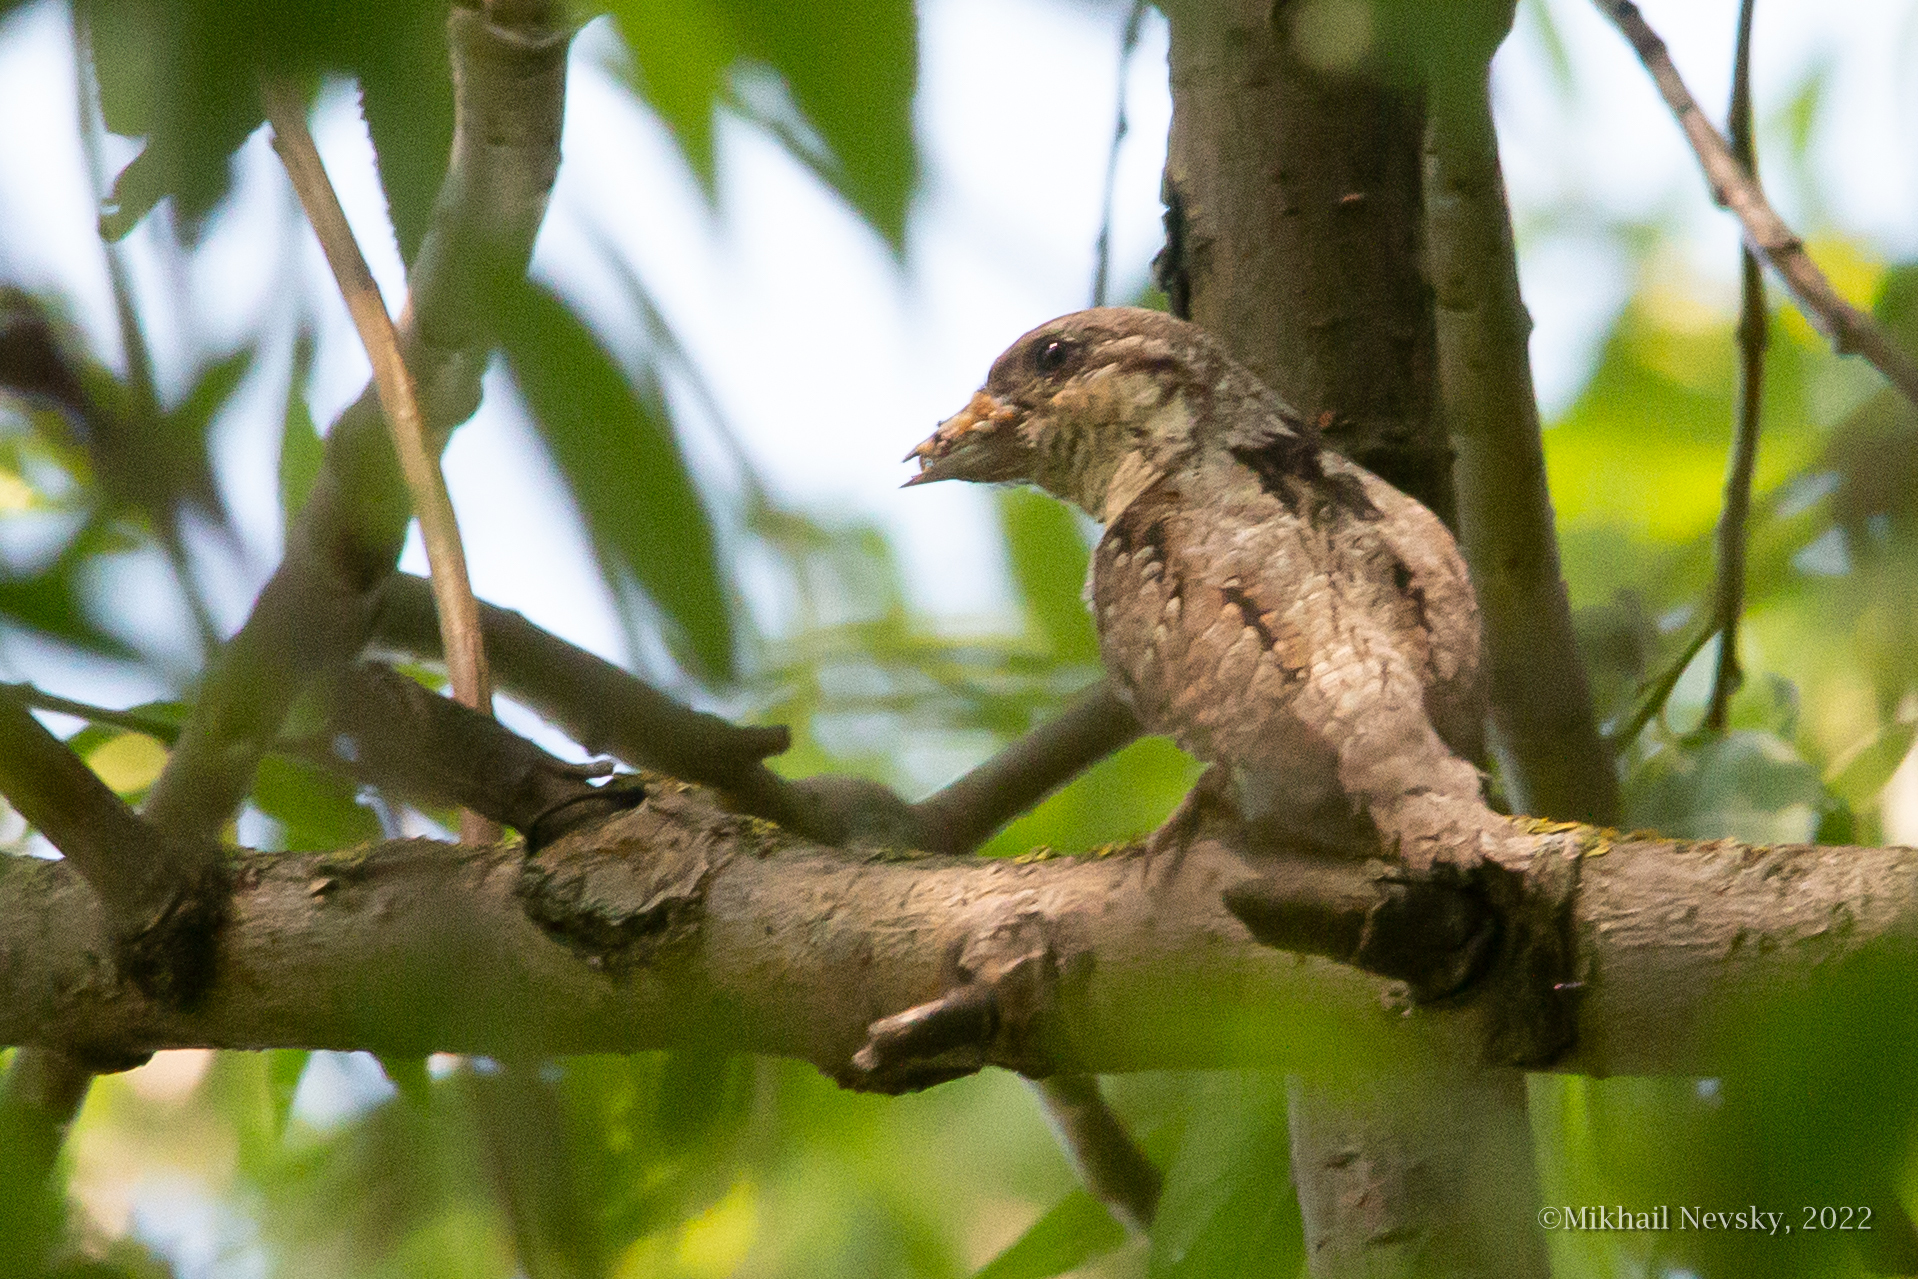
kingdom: Animalia
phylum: Chordata
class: Aves
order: Piciformes
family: Picidae
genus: Jynx
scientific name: Jynx torquilla
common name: Eurasian wryneck
